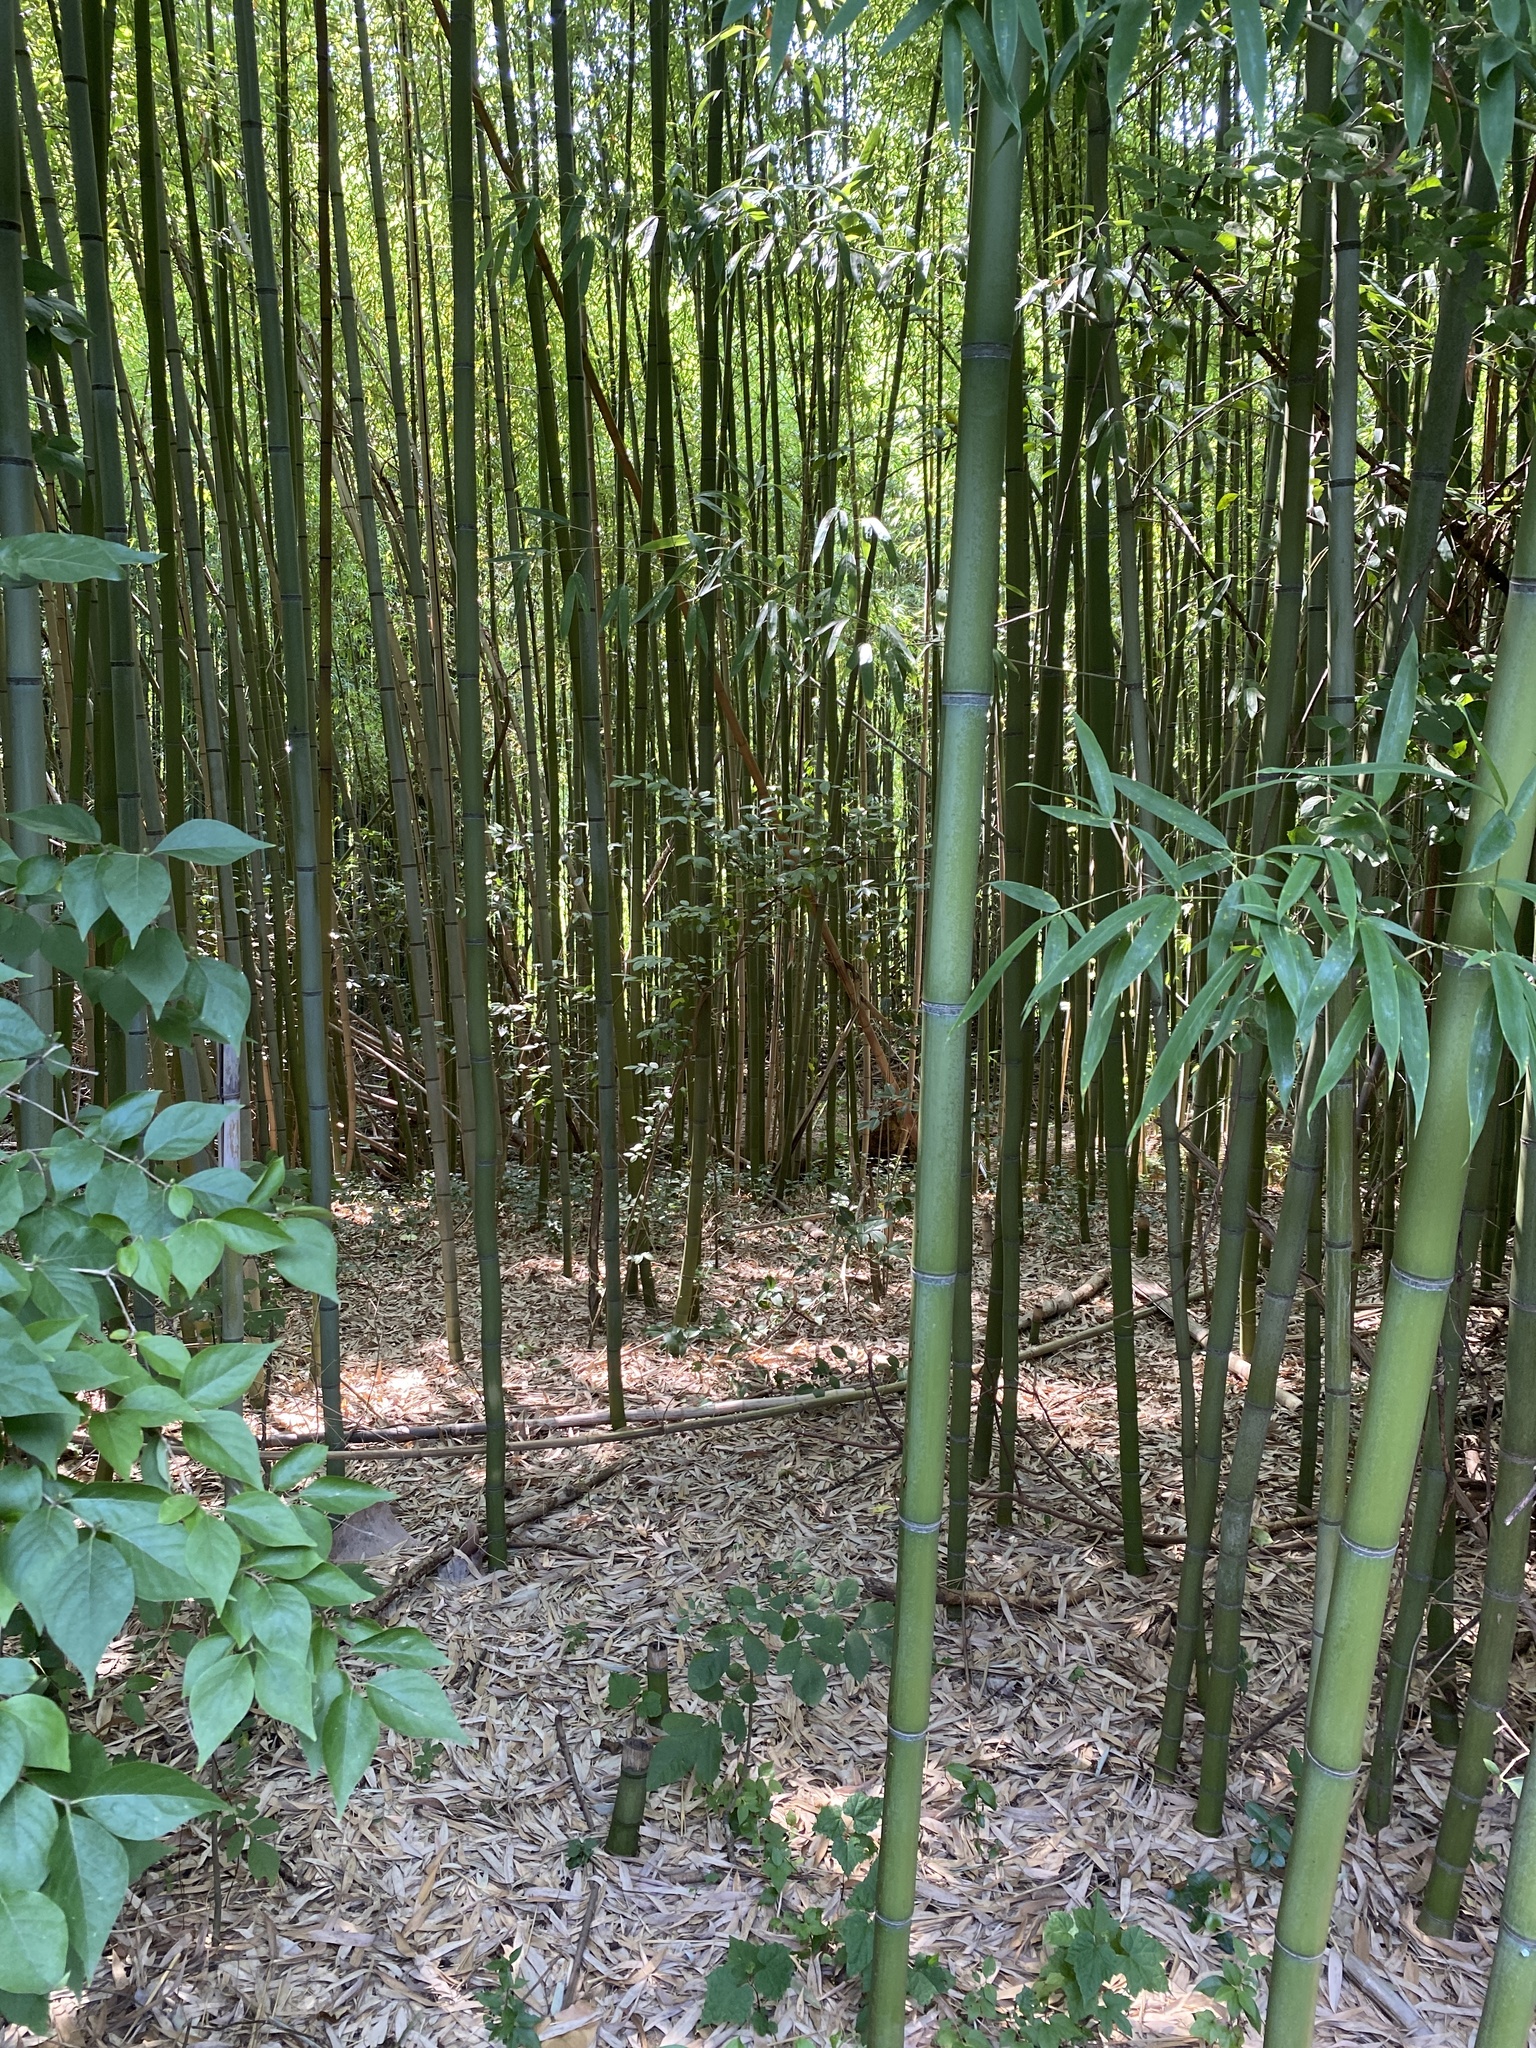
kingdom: Plantae
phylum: Tracheophyta
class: Liliopsida
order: Poales
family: Poaceae
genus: Phyllostachys
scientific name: Phyllostachys aurea
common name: Golden bamboo
